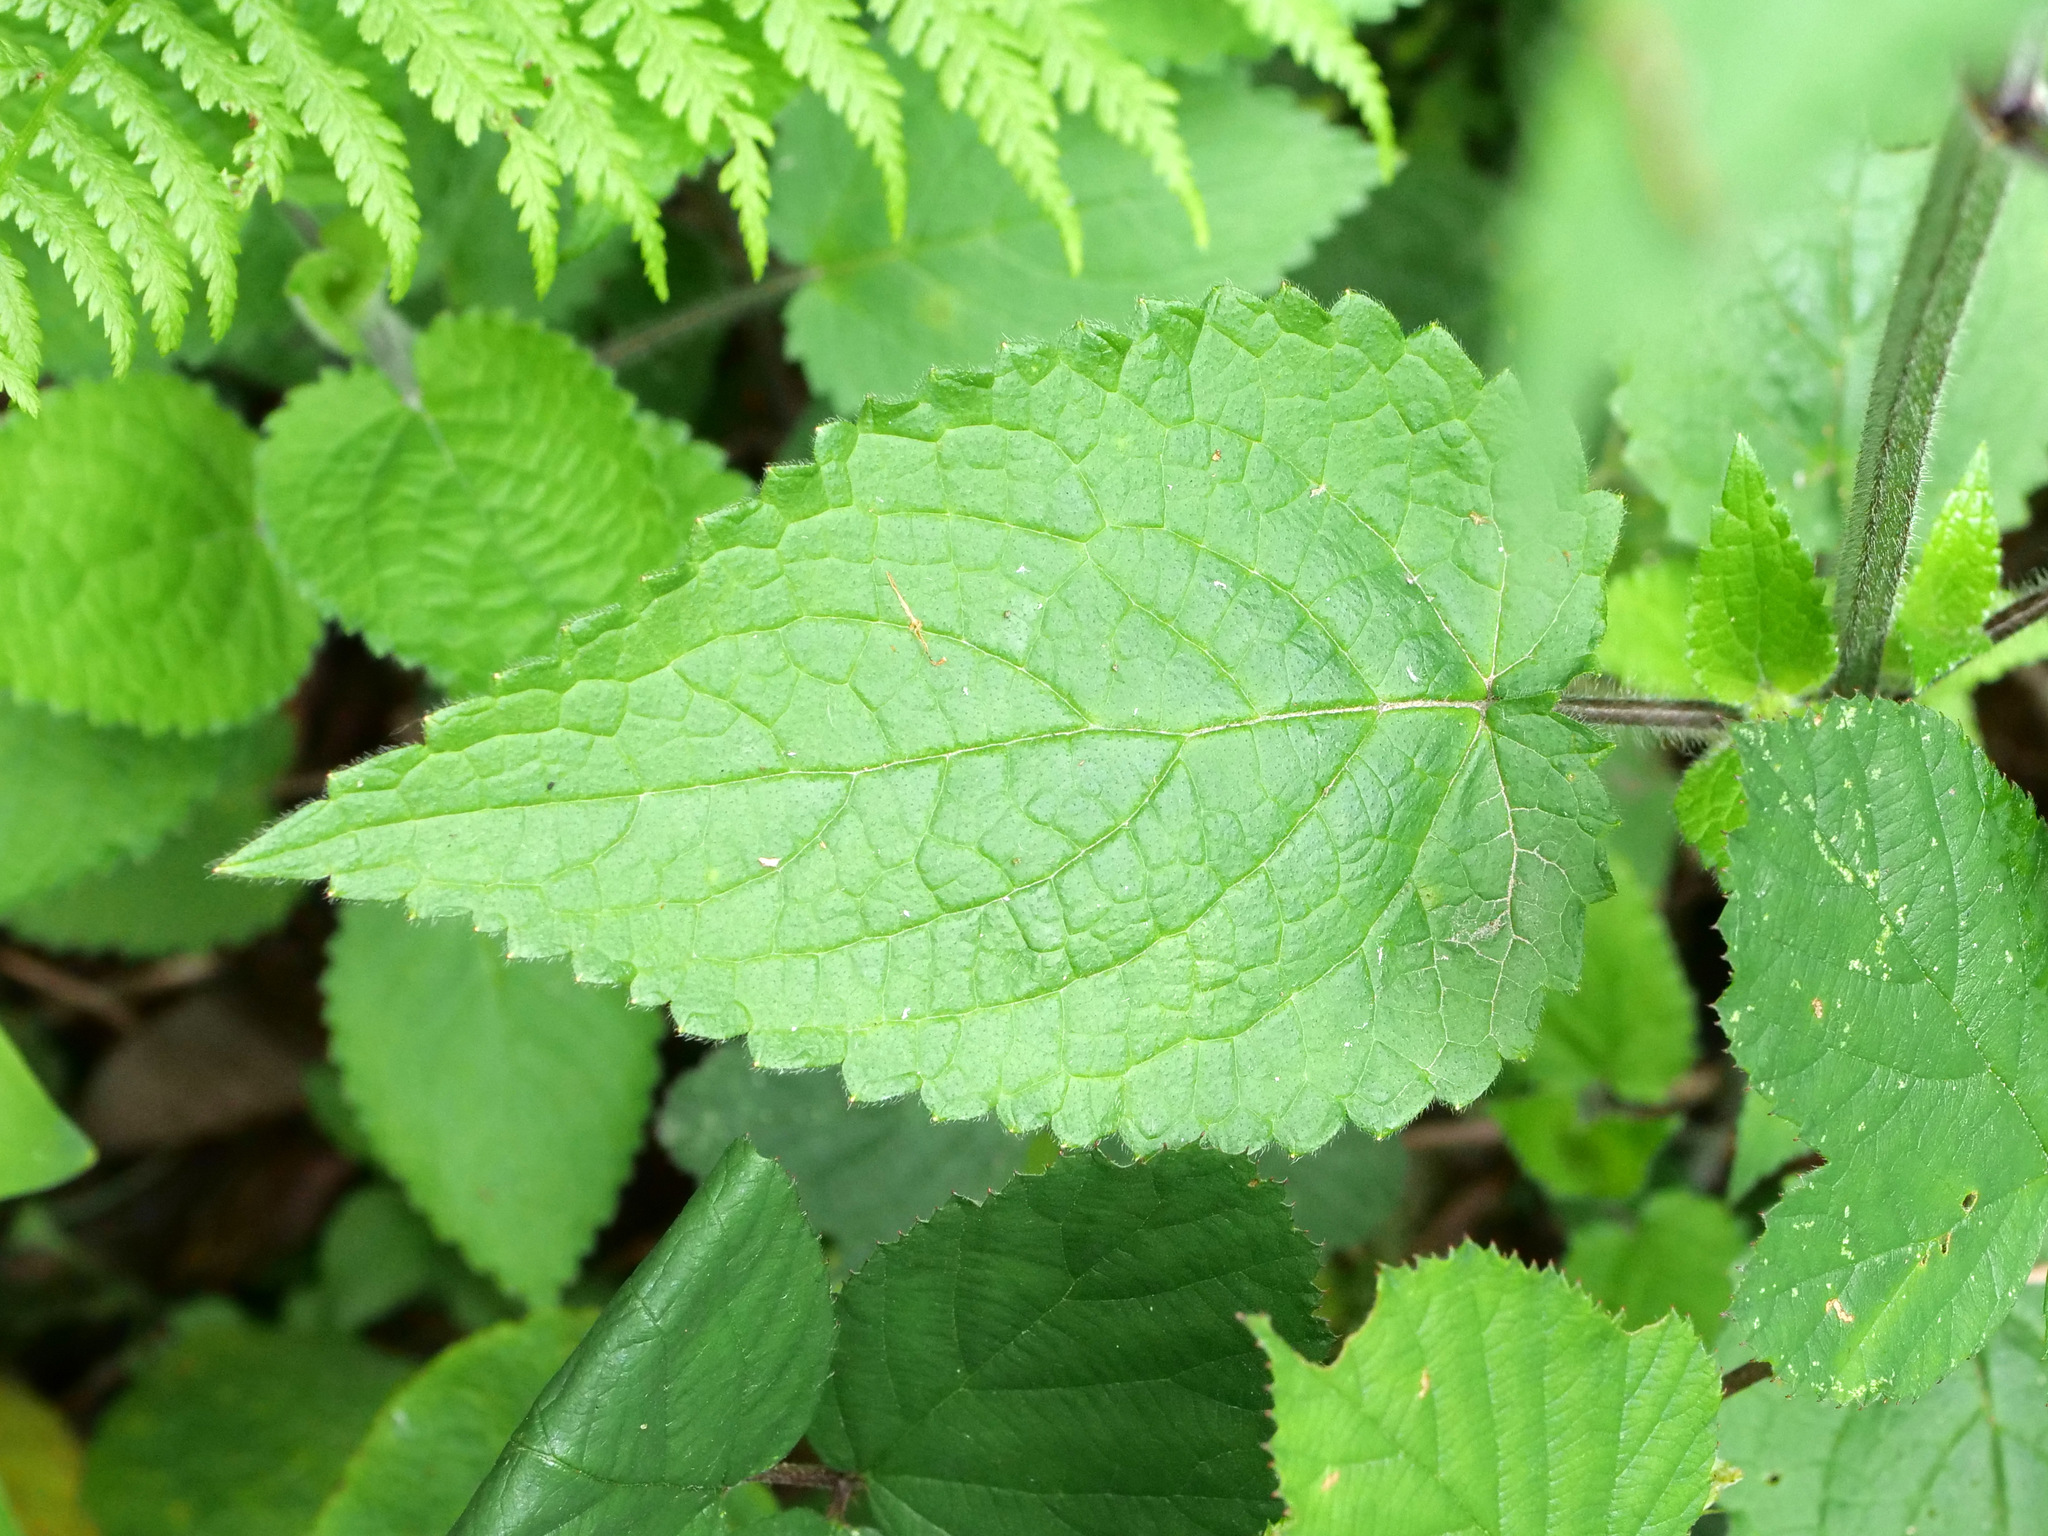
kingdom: Plantae
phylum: Tracheophyta
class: Magnoliopsida
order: Lamiales
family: Lamiaceae
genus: Stachys
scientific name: Stachys sylvatica
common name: Hedge woundwort
